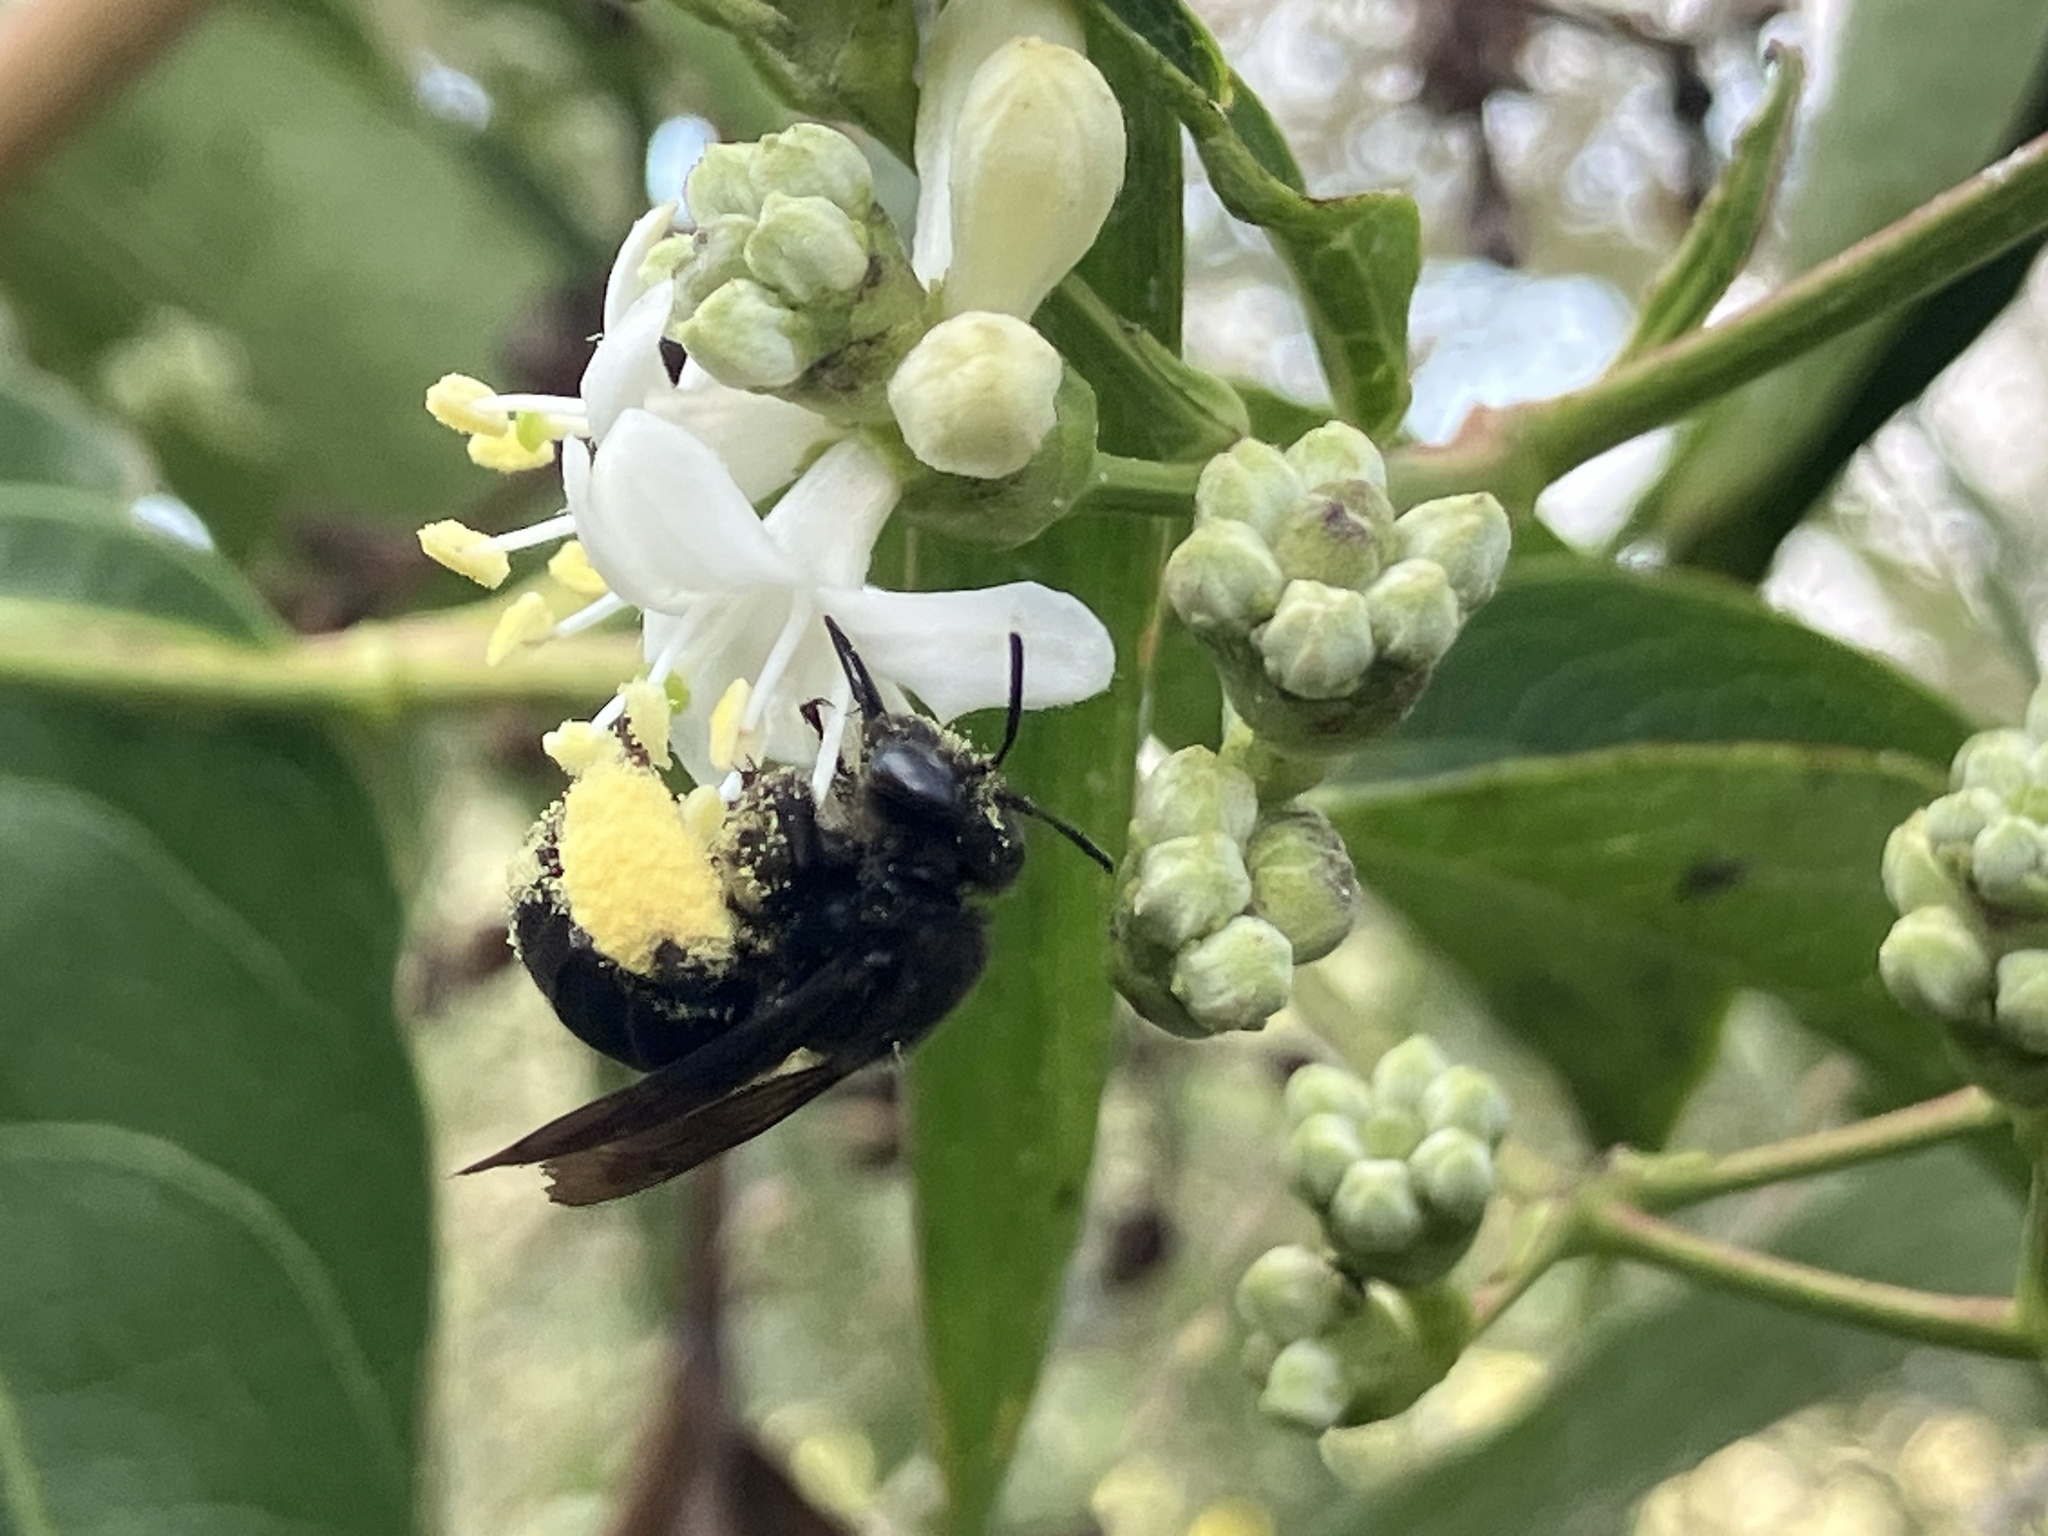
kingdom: Animalia
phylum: Arthropoda
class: Insecta
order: Hymenoptera
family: Apidae
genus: Melissodes
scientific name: Melissodes bimaculatus
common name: Two-spotted long-horned bee
